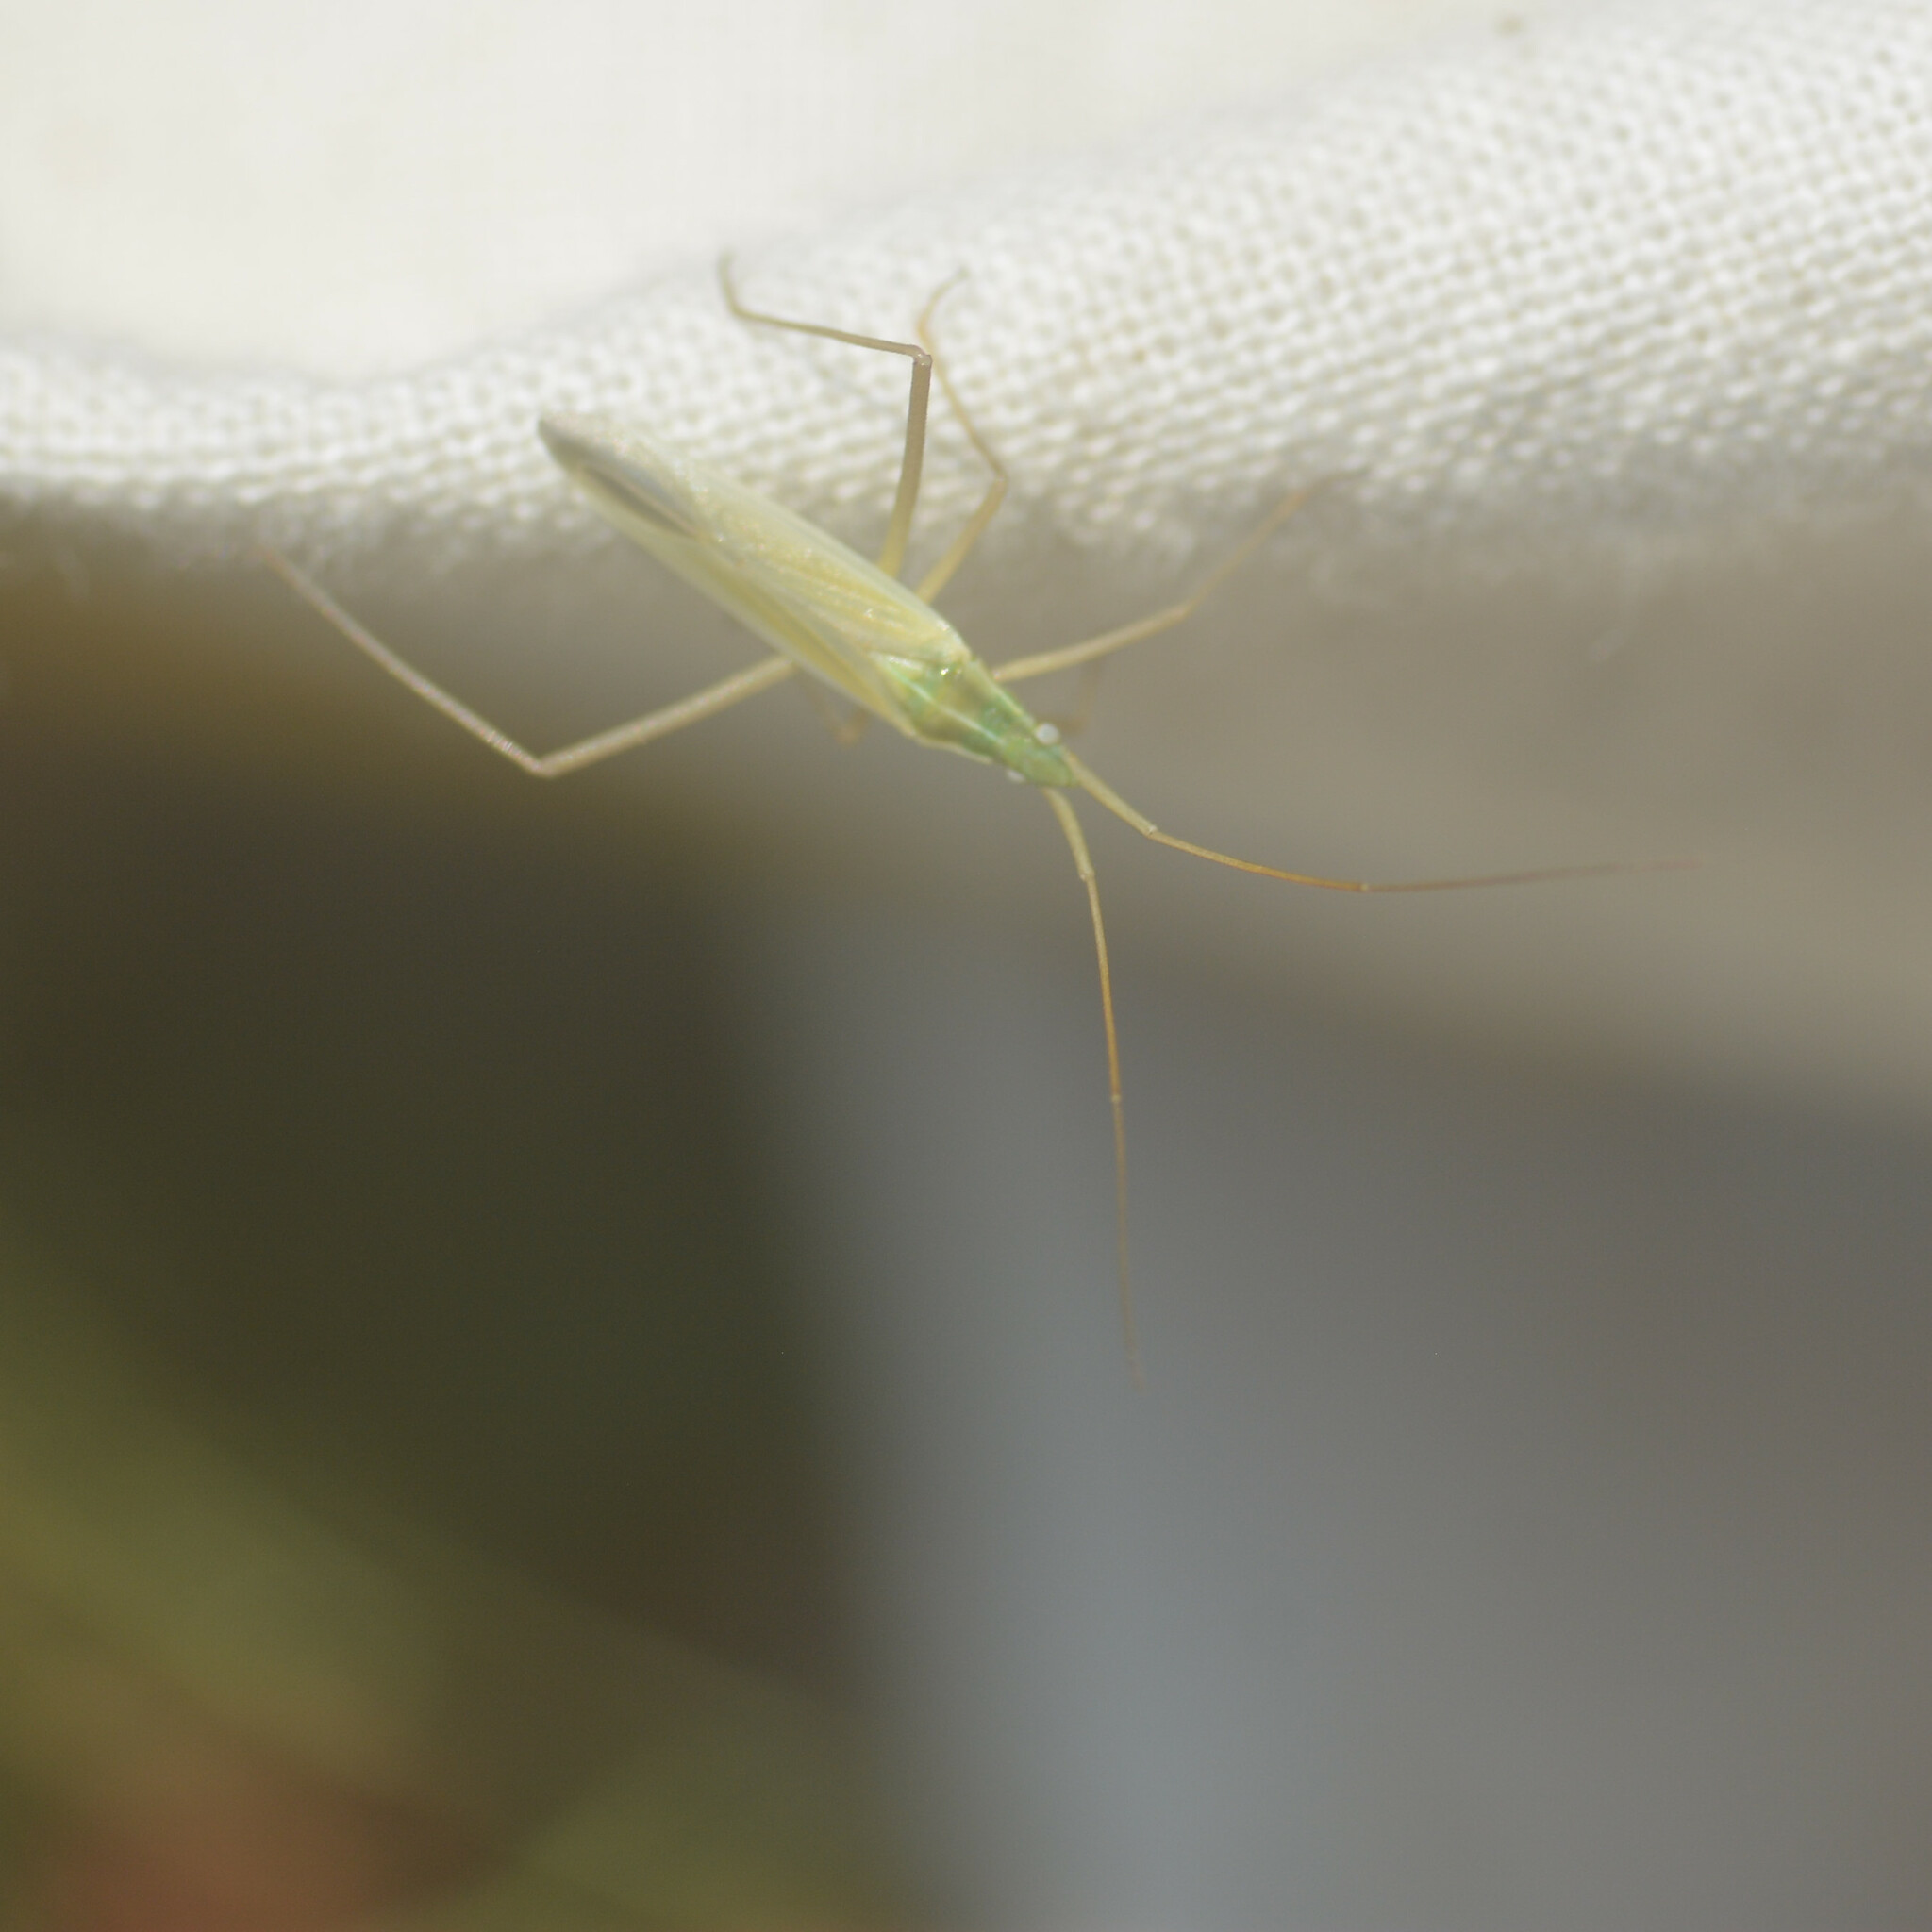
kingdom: Animalia
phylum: Arthropoda
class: Insecta
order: Hemiptera
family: Miridae
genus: Megaloceroea
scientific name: Megaloceroea recticornis
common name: Plant bug
